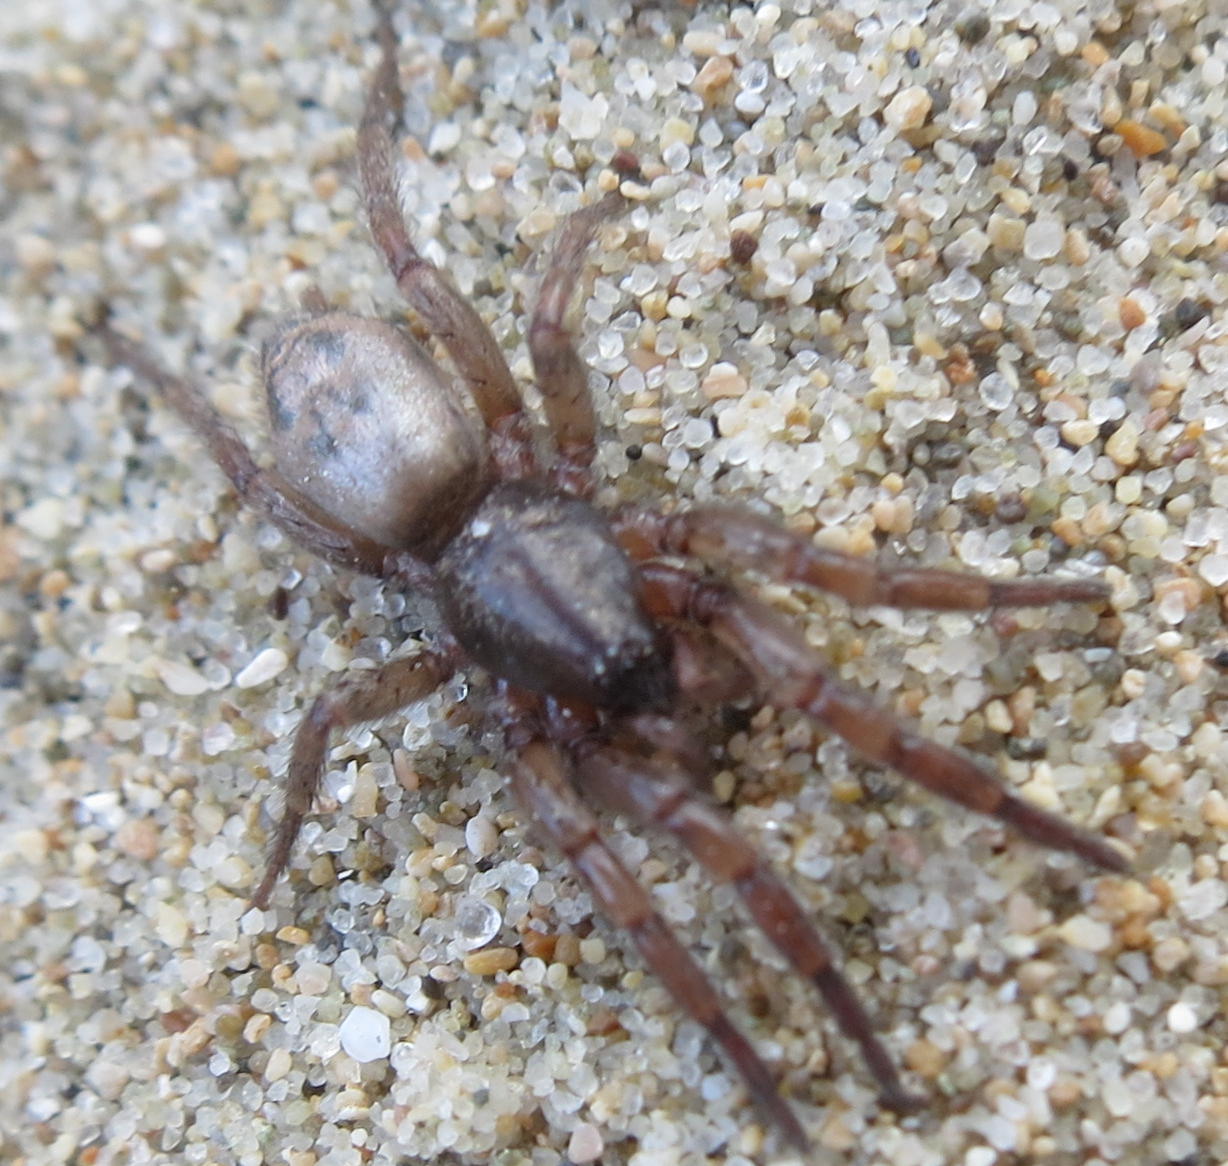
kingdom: Animalia
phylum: Arthropoda
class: Arachnida
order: Araneae
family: Gnaphosidae
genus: Scotophaeus
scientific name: Scotophaeus pretiosus
